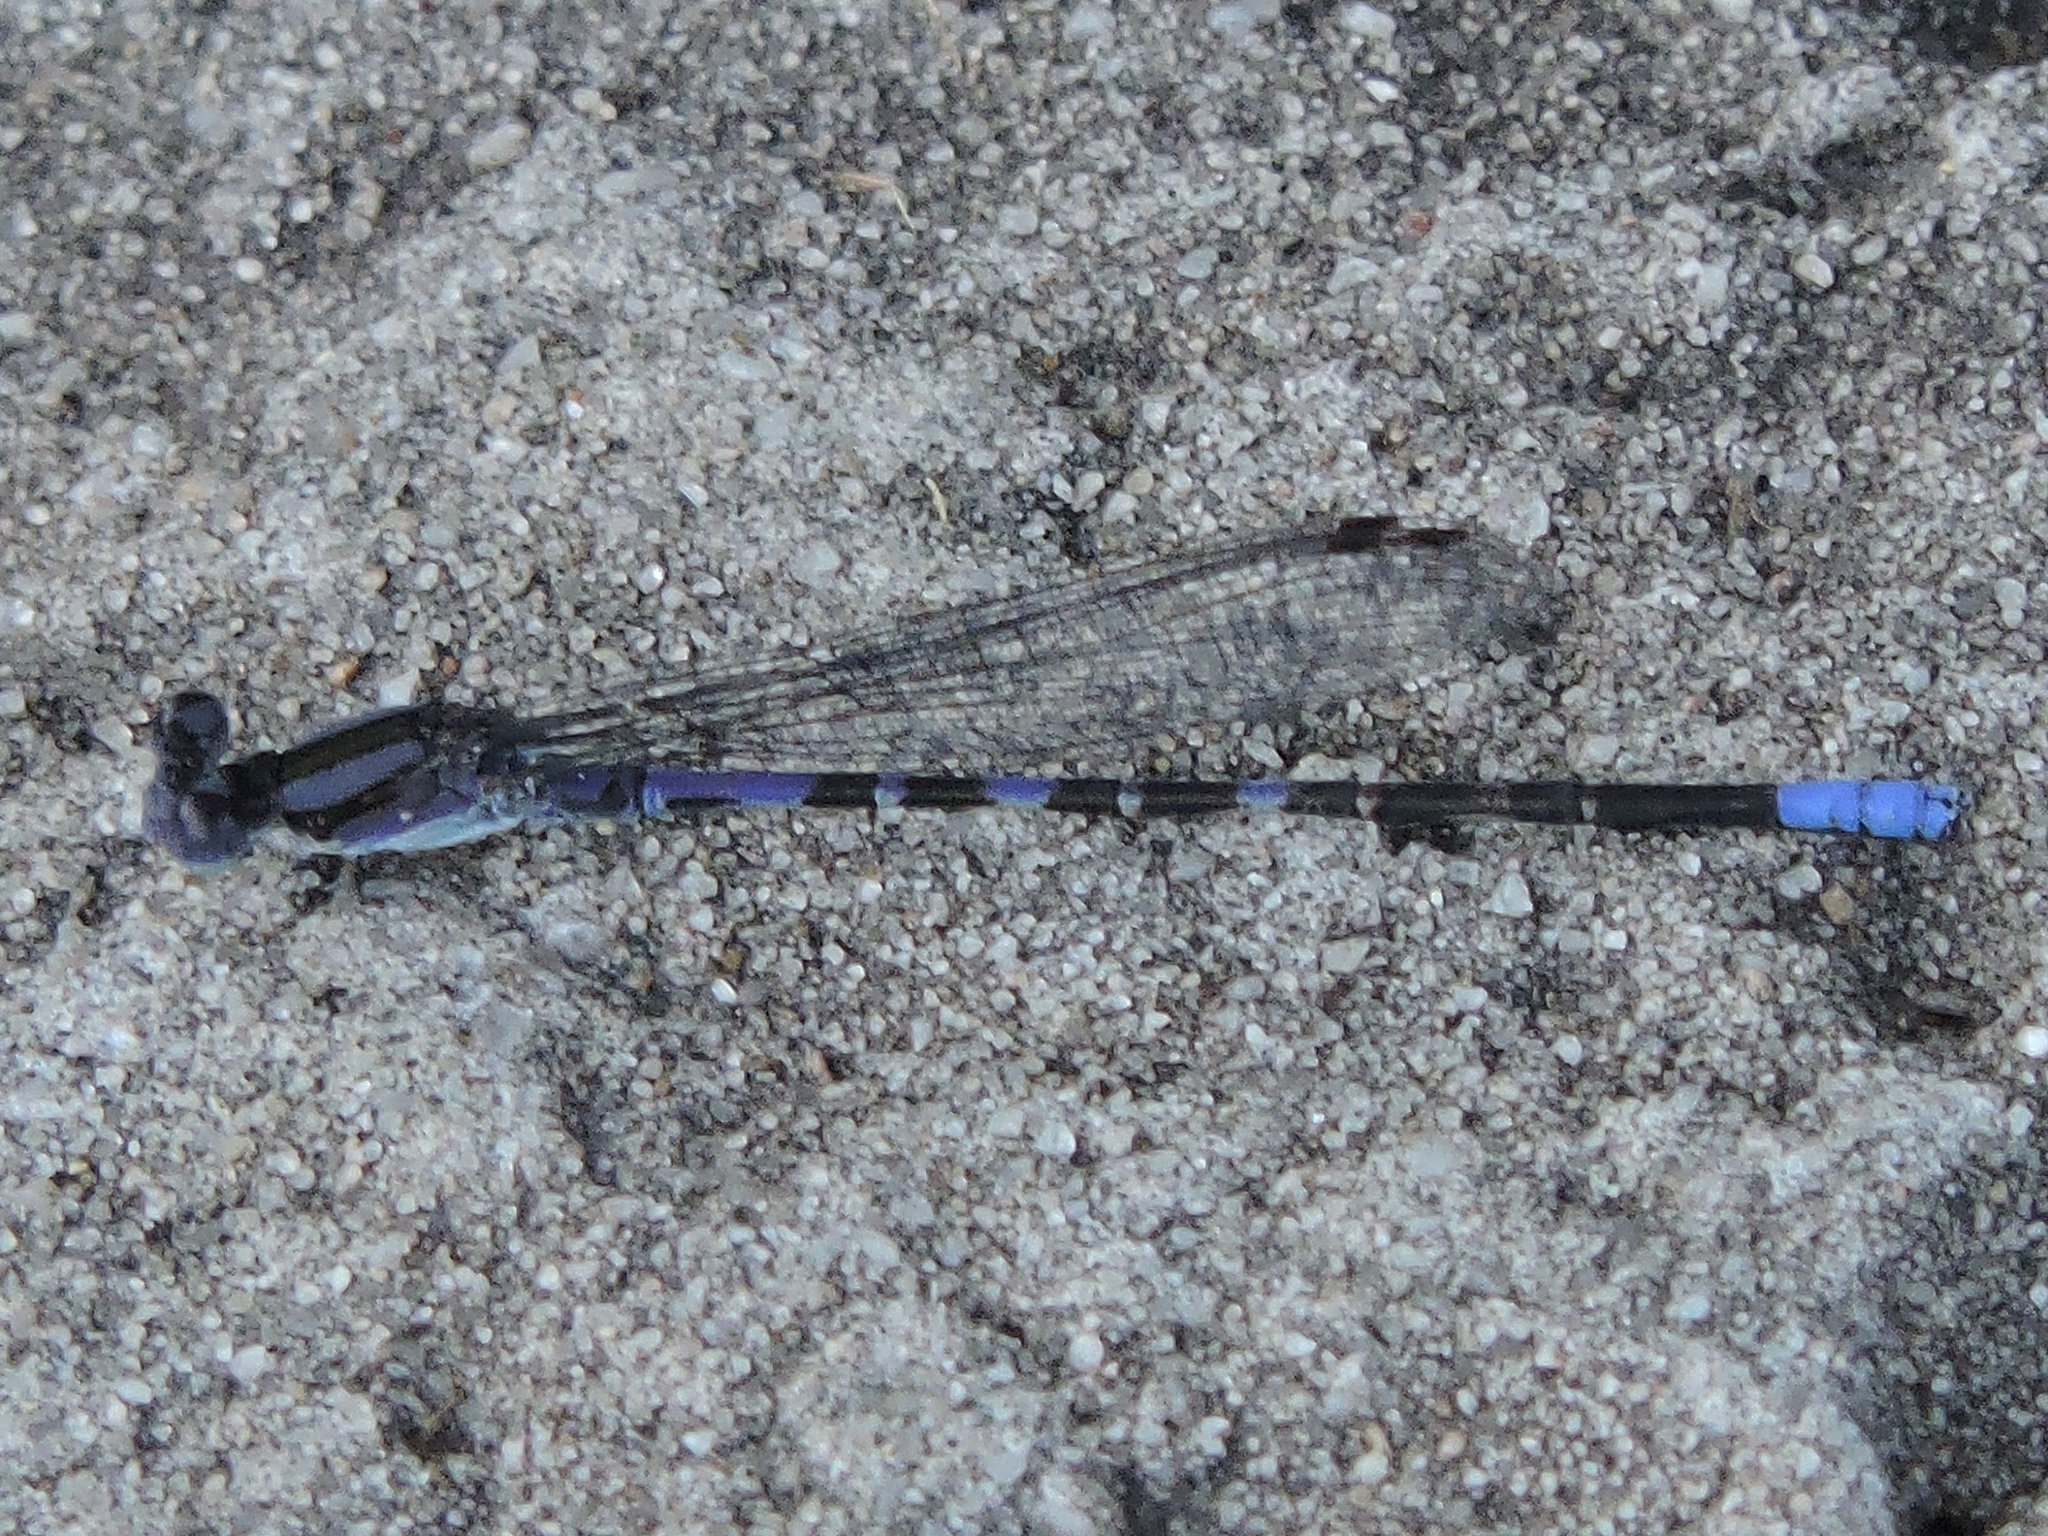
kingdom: Animalia
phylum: Arthropoda
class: Insecta
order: Odonata
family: Coenagrionidae
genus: Argia
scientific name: Argia immunda
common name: Kiowa dancer
